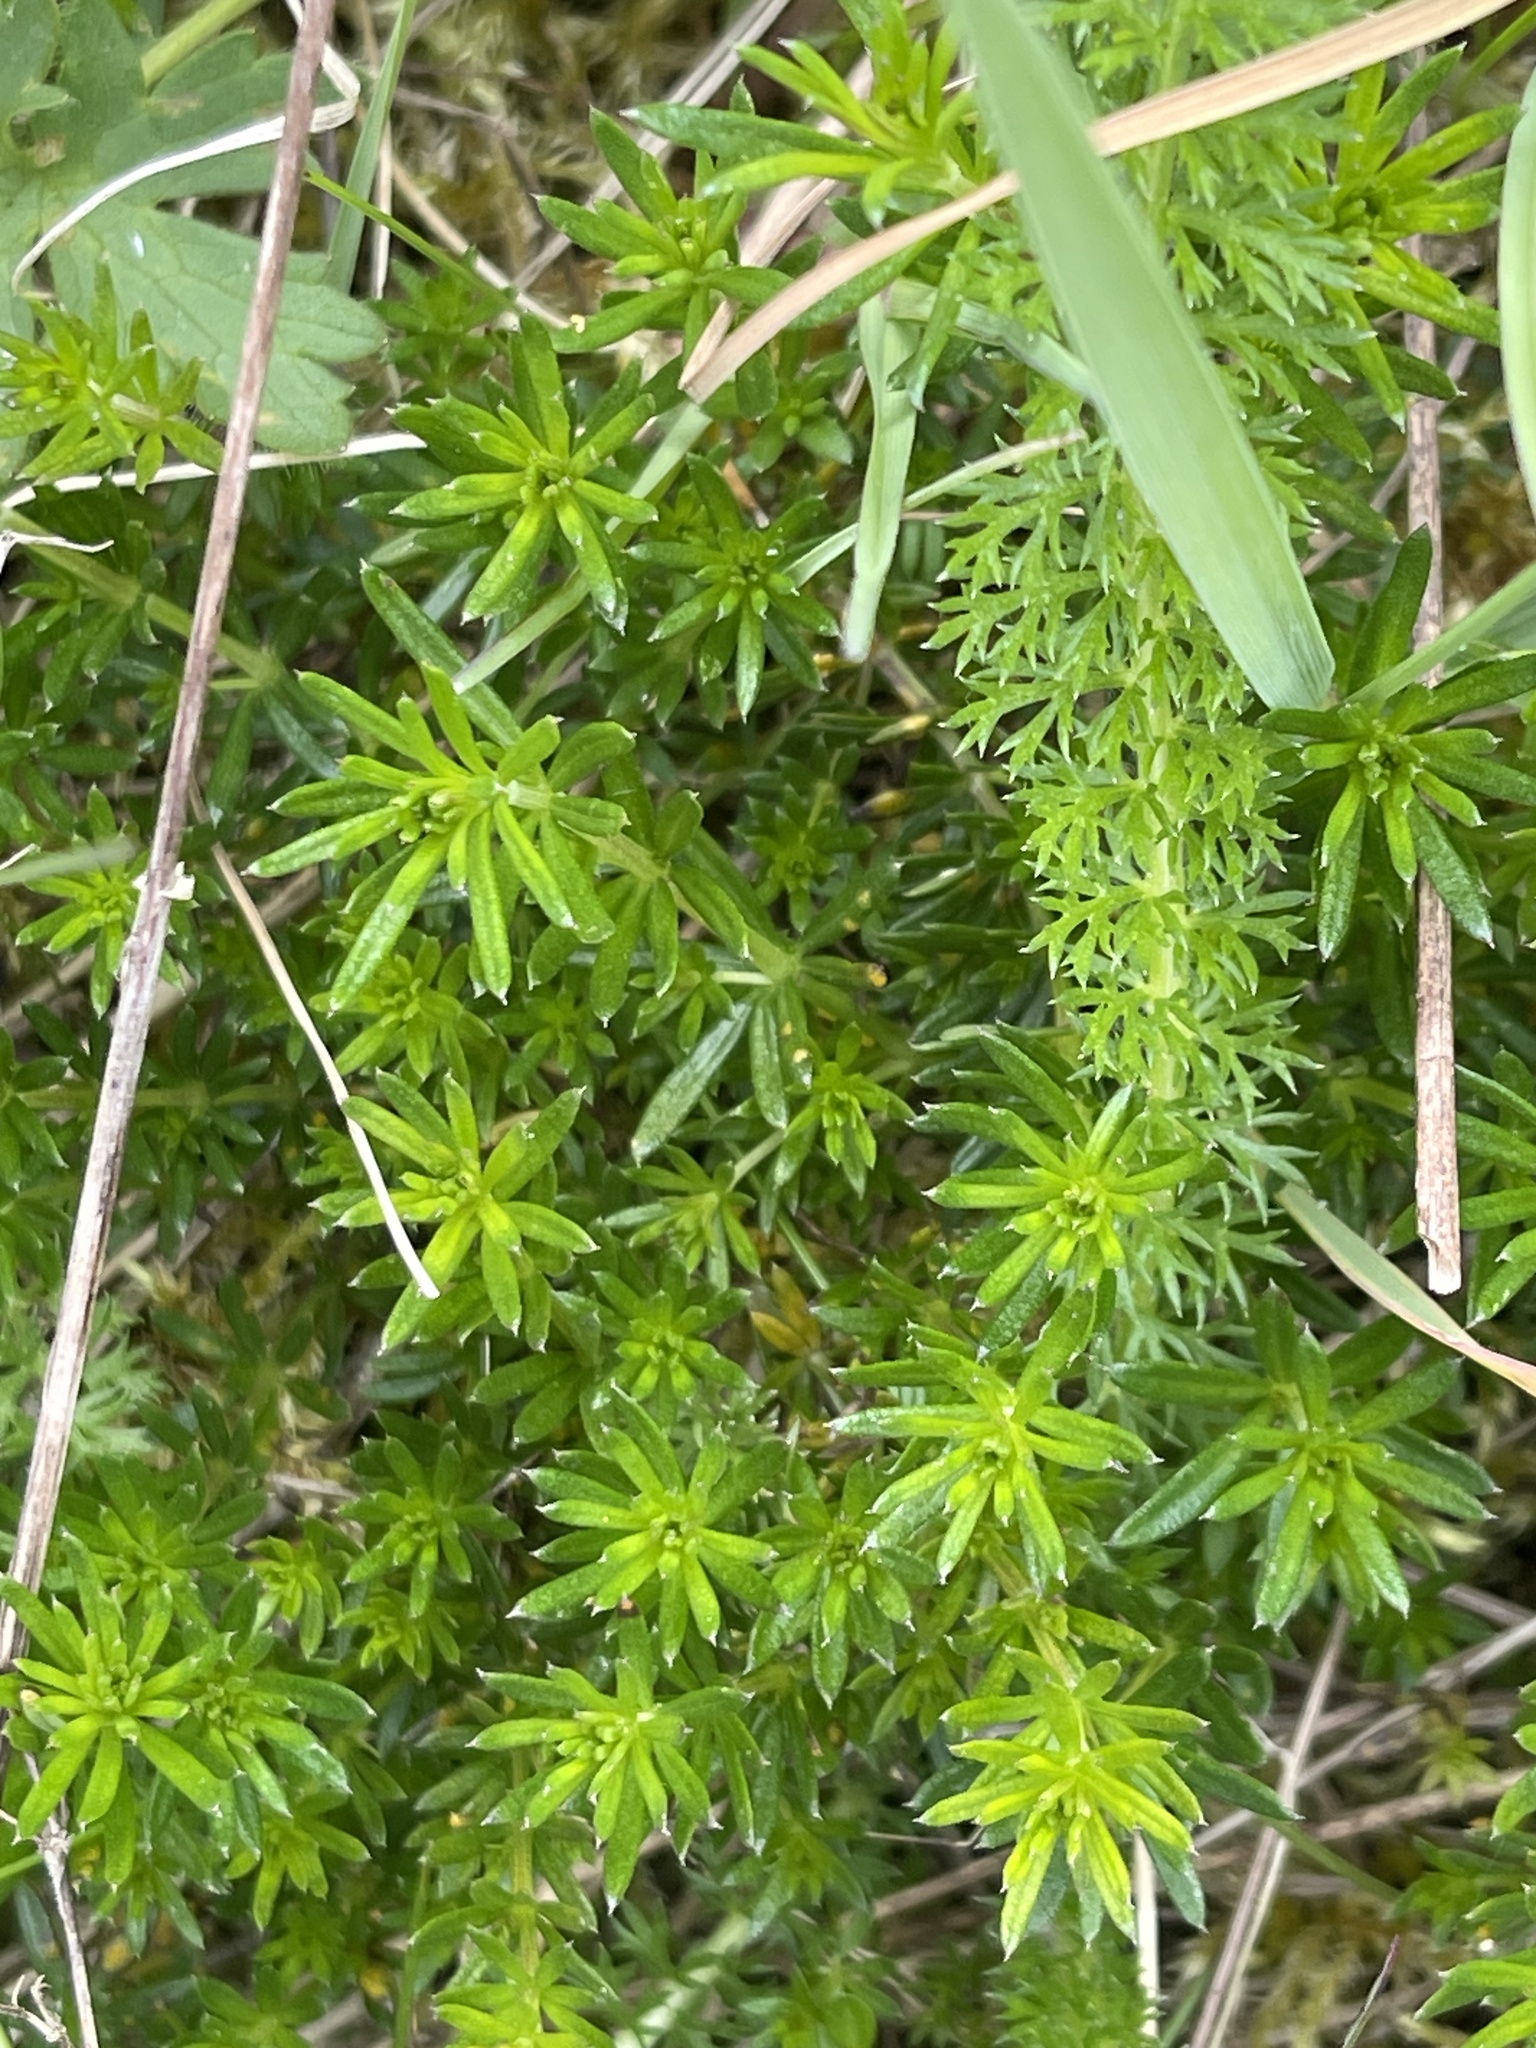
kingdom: Plantae
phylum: Tracheophyta
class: Magnoliopsida
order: Gentianales
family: Rubiaceae
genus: Galium
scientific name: Galium verum
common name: Lady's bedstraw
